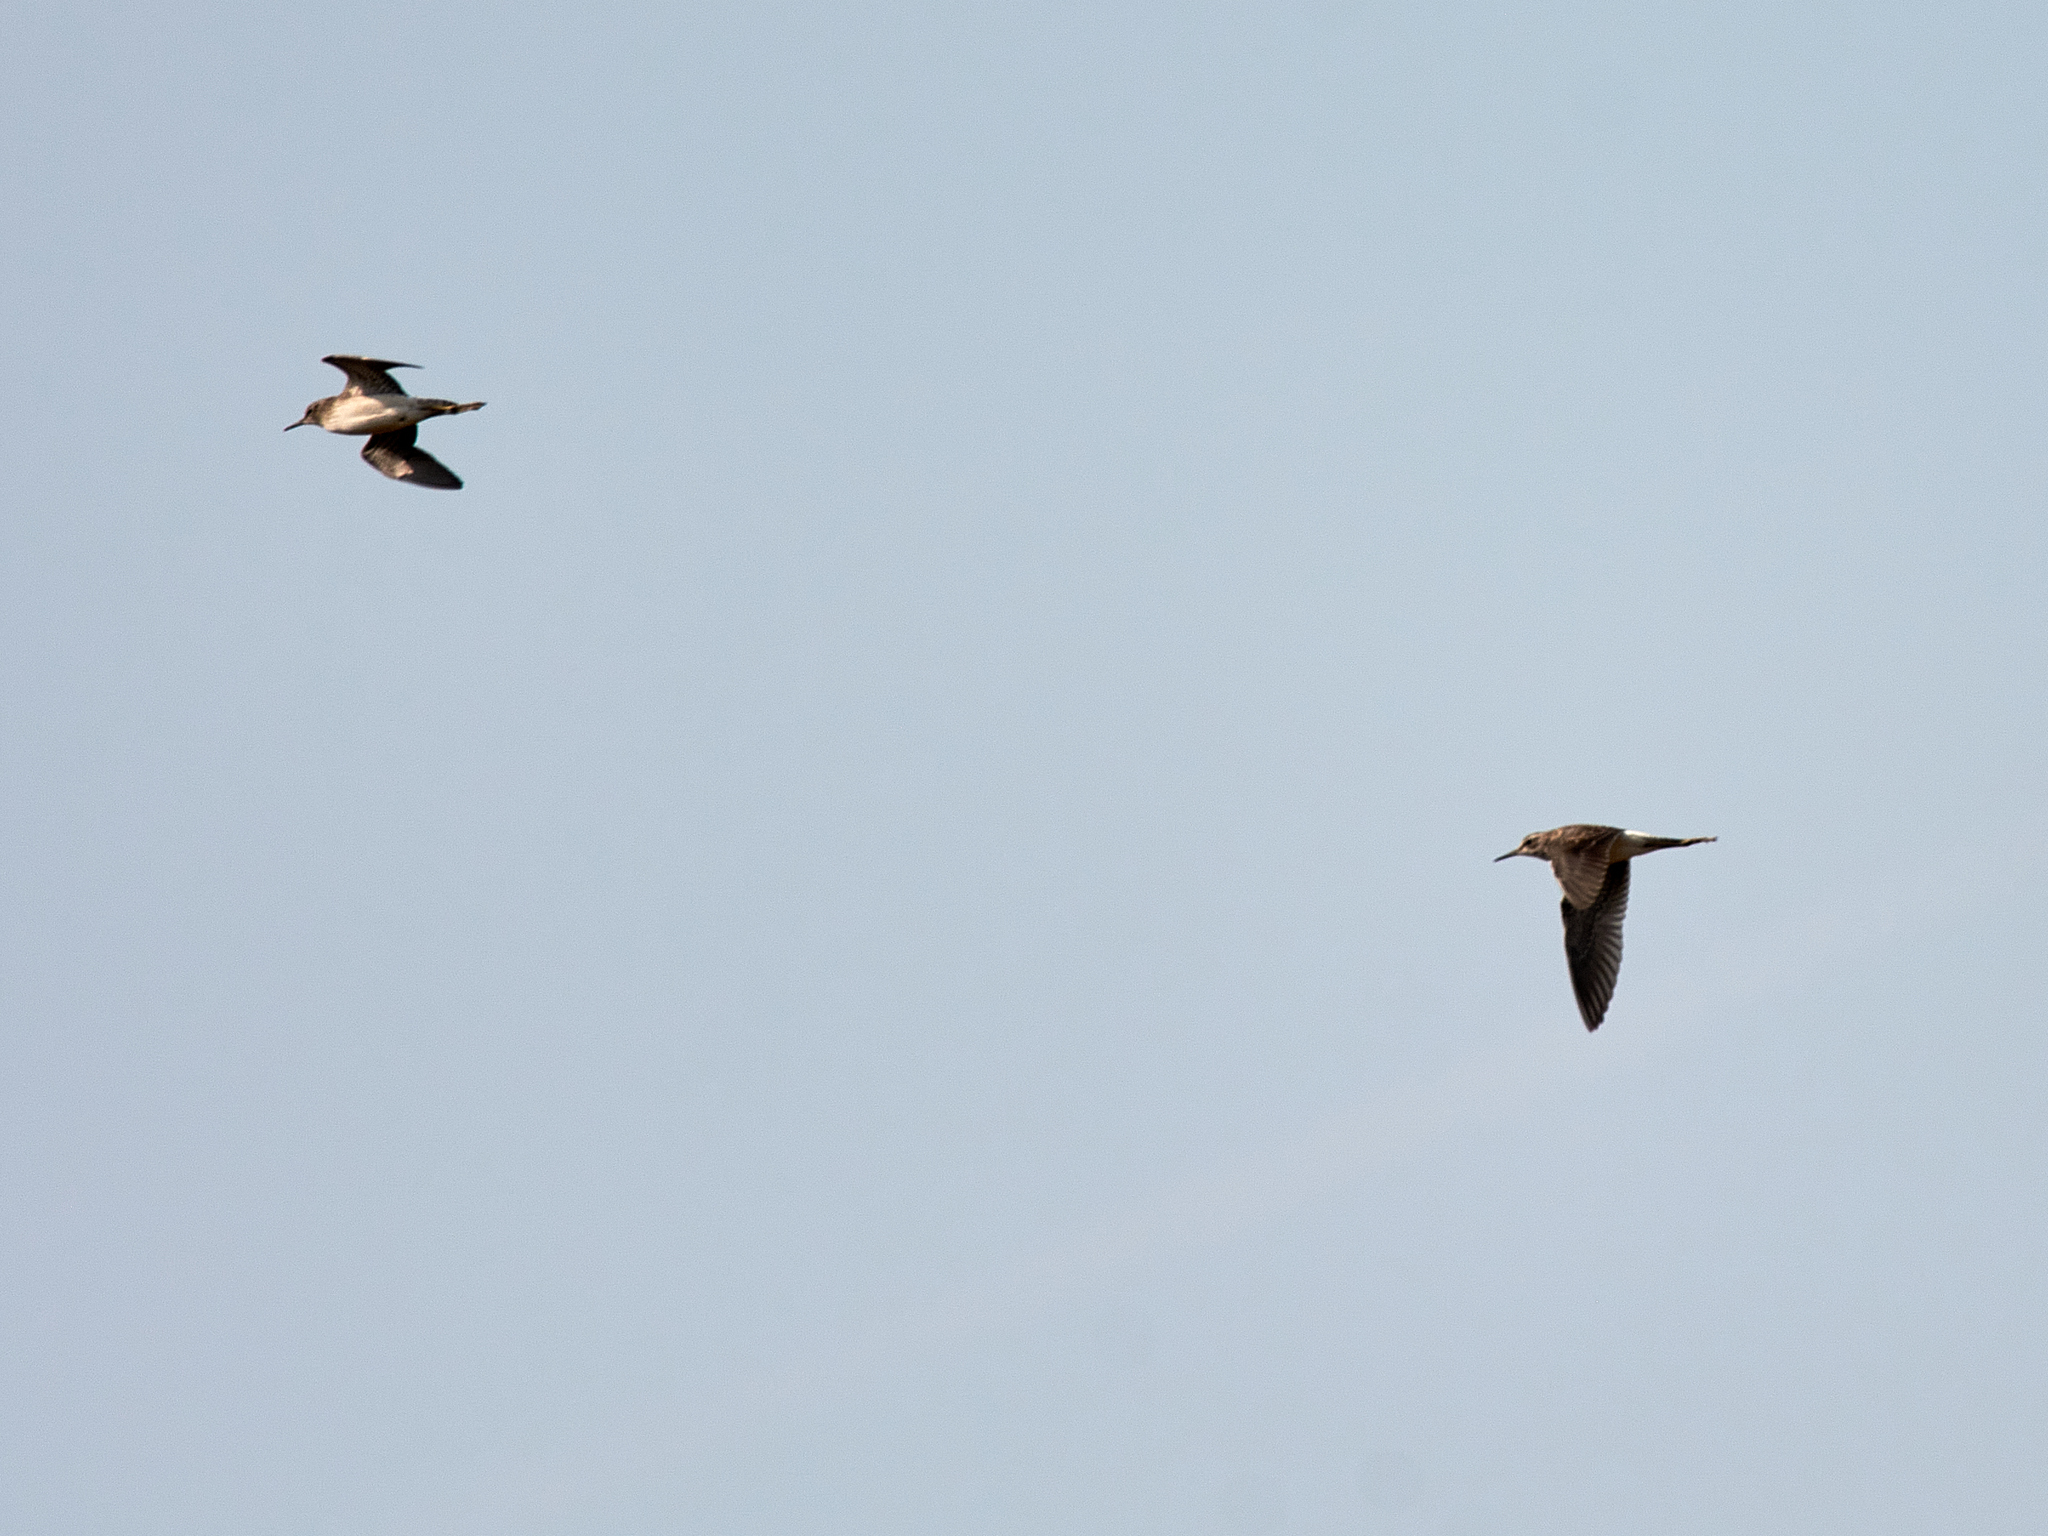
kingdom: Animalia
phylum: Chordata
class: Aves
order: Charadriiformes
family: Scolopacidae
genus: Tringa
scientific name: Tringa glareola
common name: Wood sandpiper
